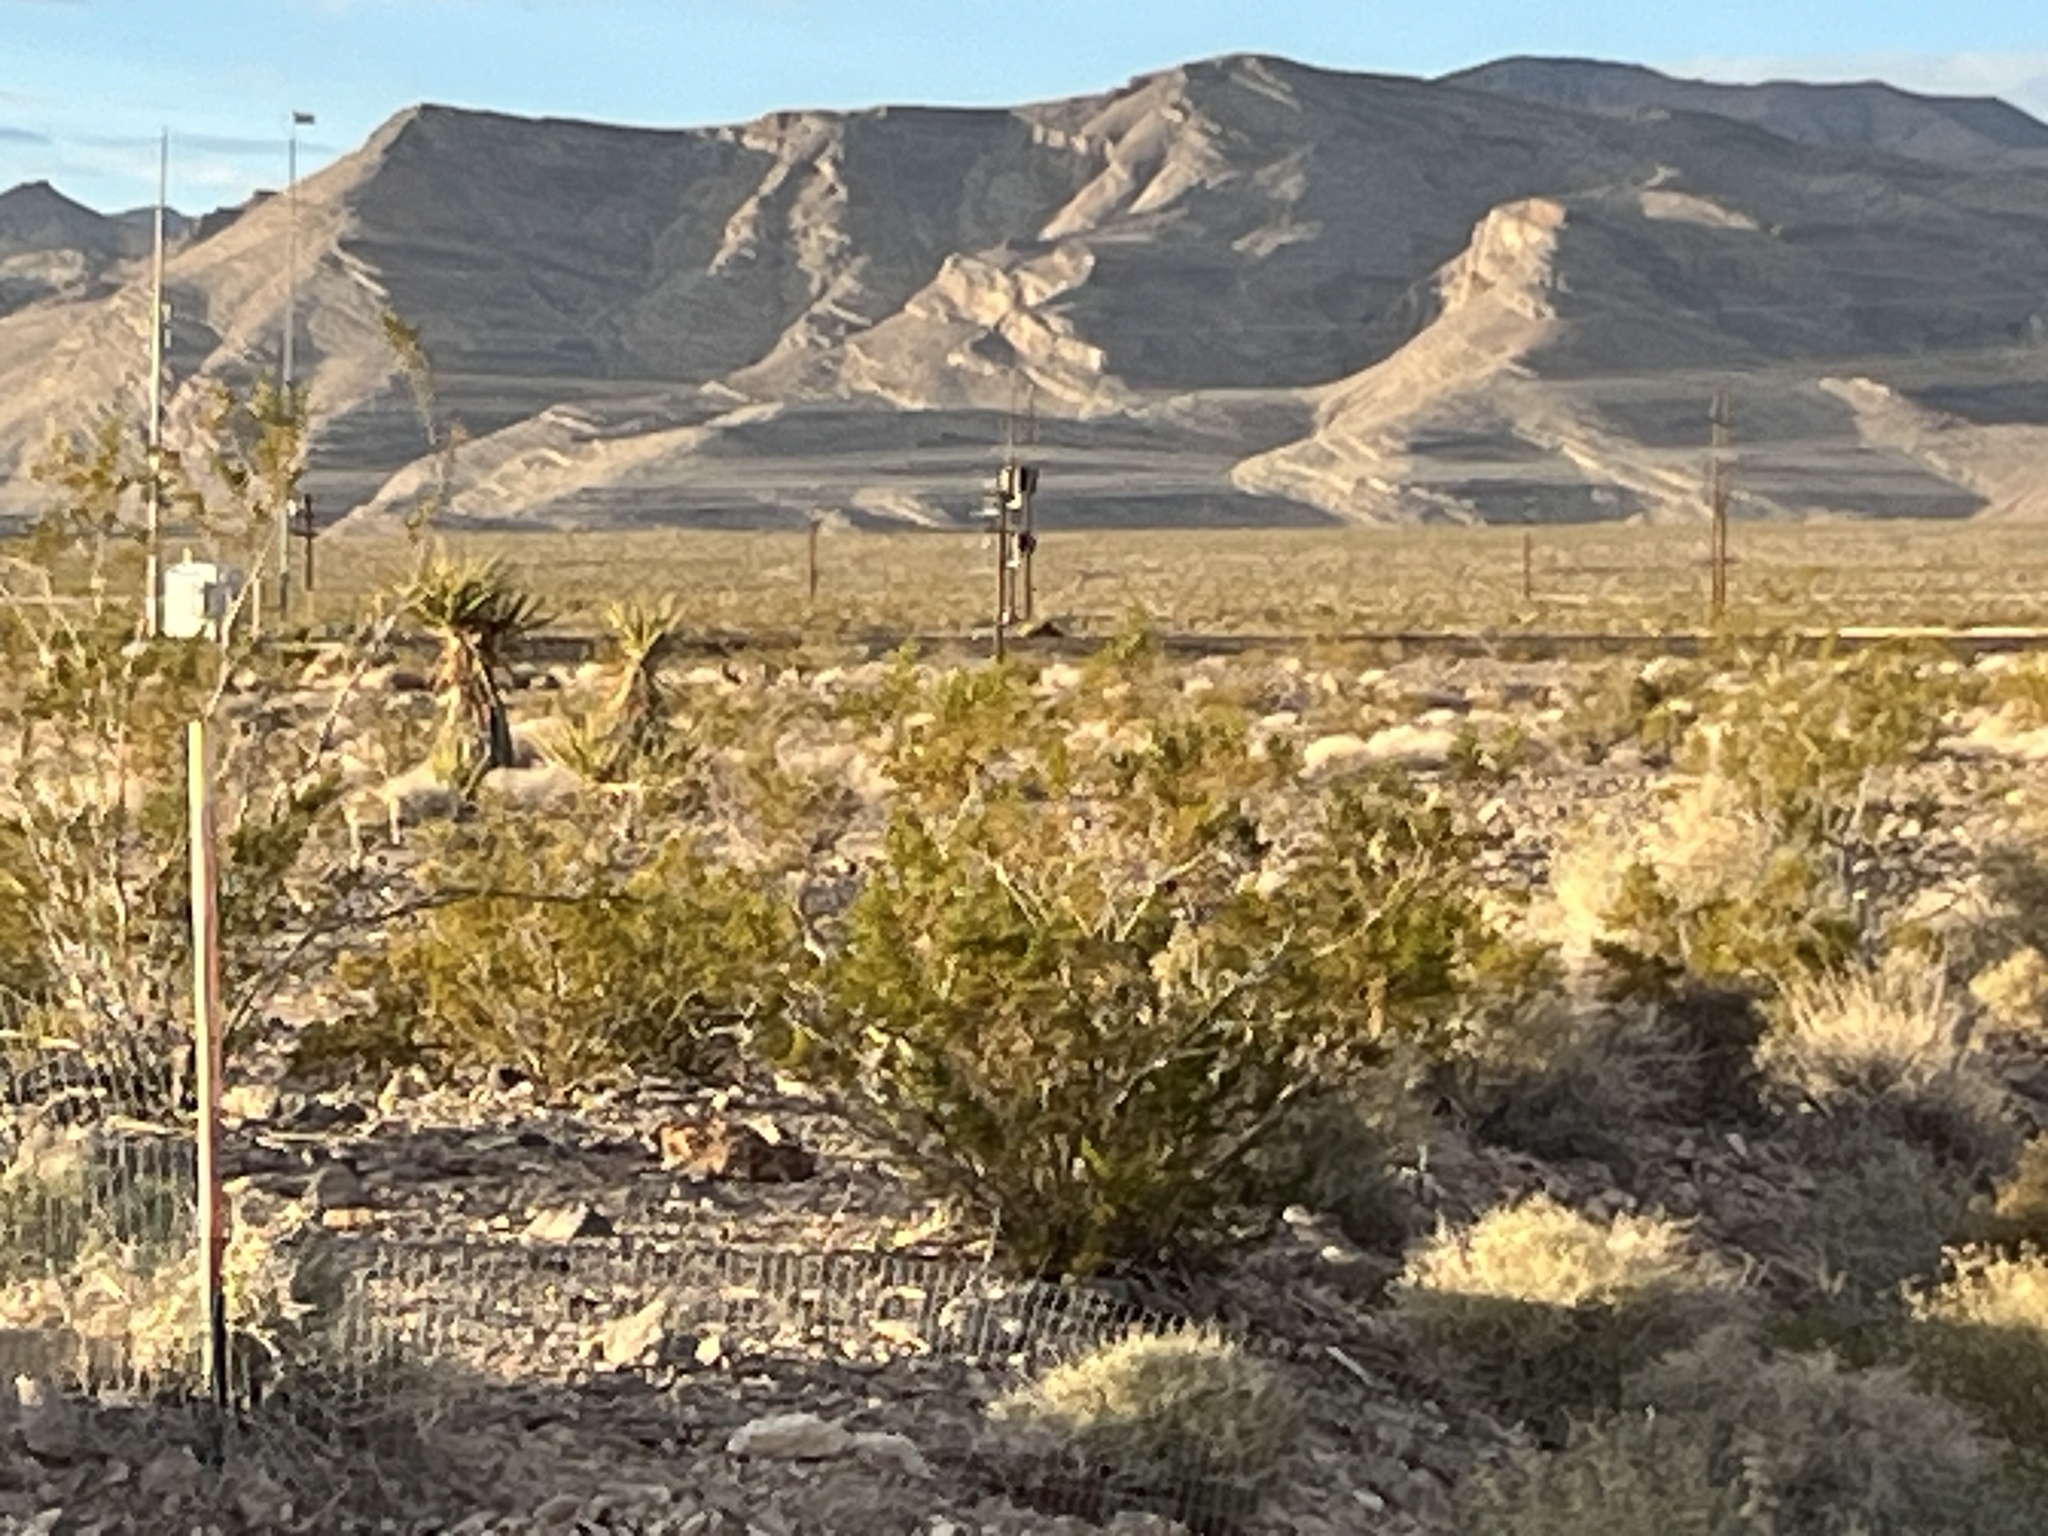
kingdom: Plantae
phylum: Tracheophyta
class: Magnoliopsida
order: Zygophyllales
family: Zygophyllaceae
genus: Larrea
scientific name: Larrea tridentata
